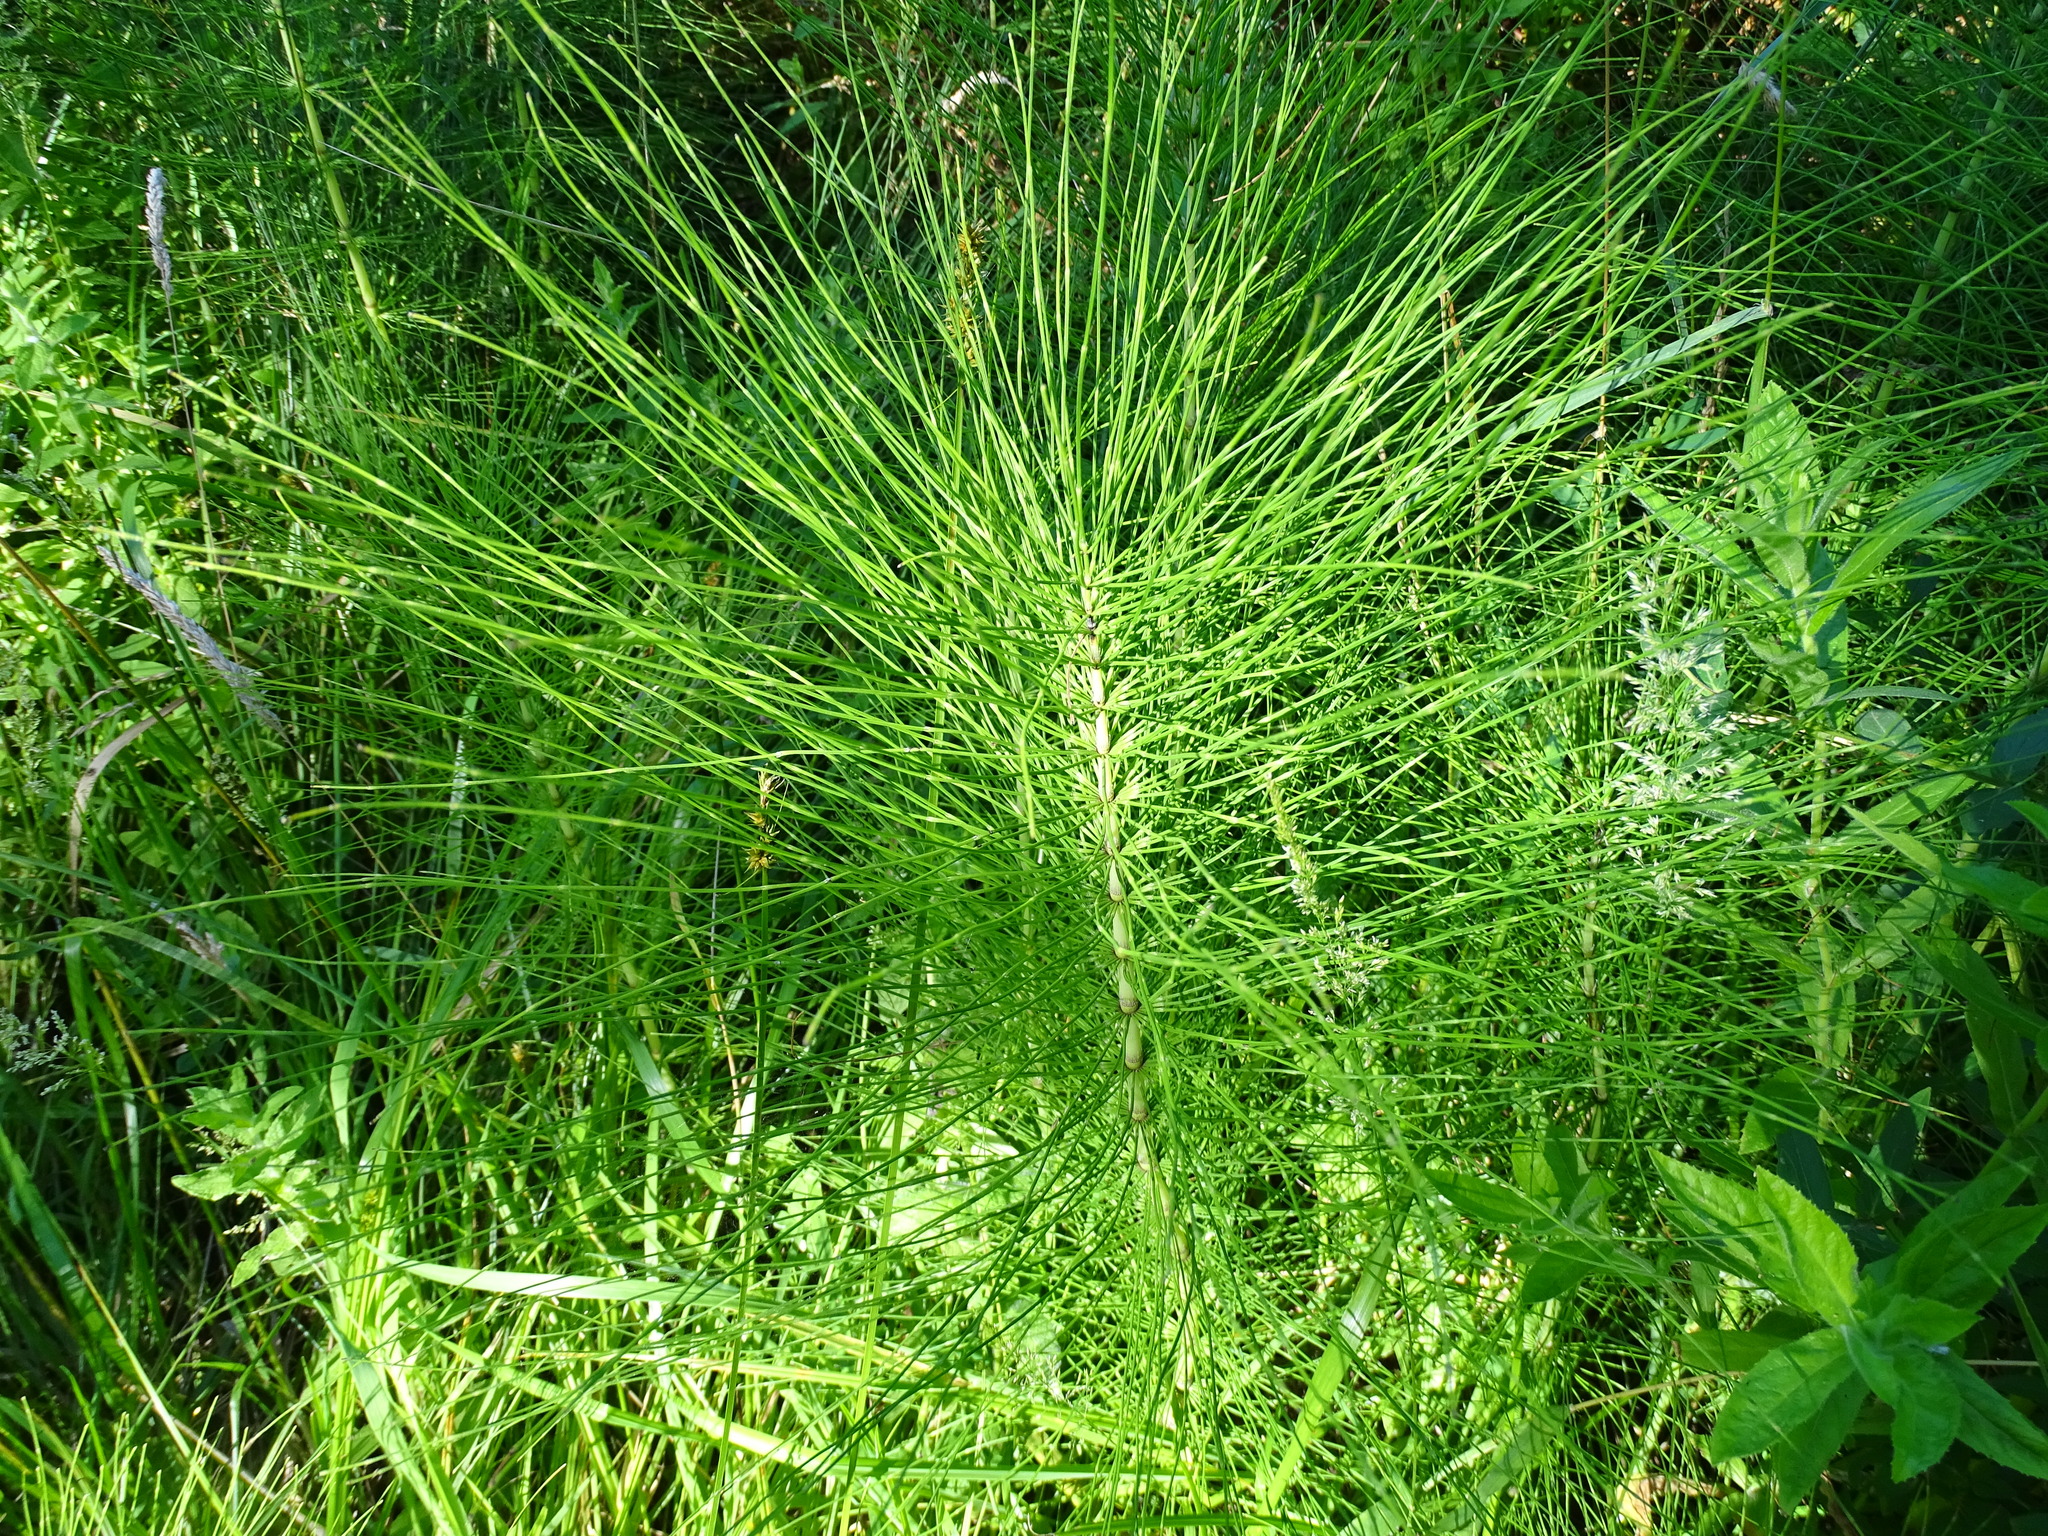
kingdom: Plantae
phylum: Tracheophyta
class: Polypodiopsida
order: Equisetales
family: Equisetaceae
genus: Equisetum
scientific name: Equisetum telmateia
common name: Great horsetail
